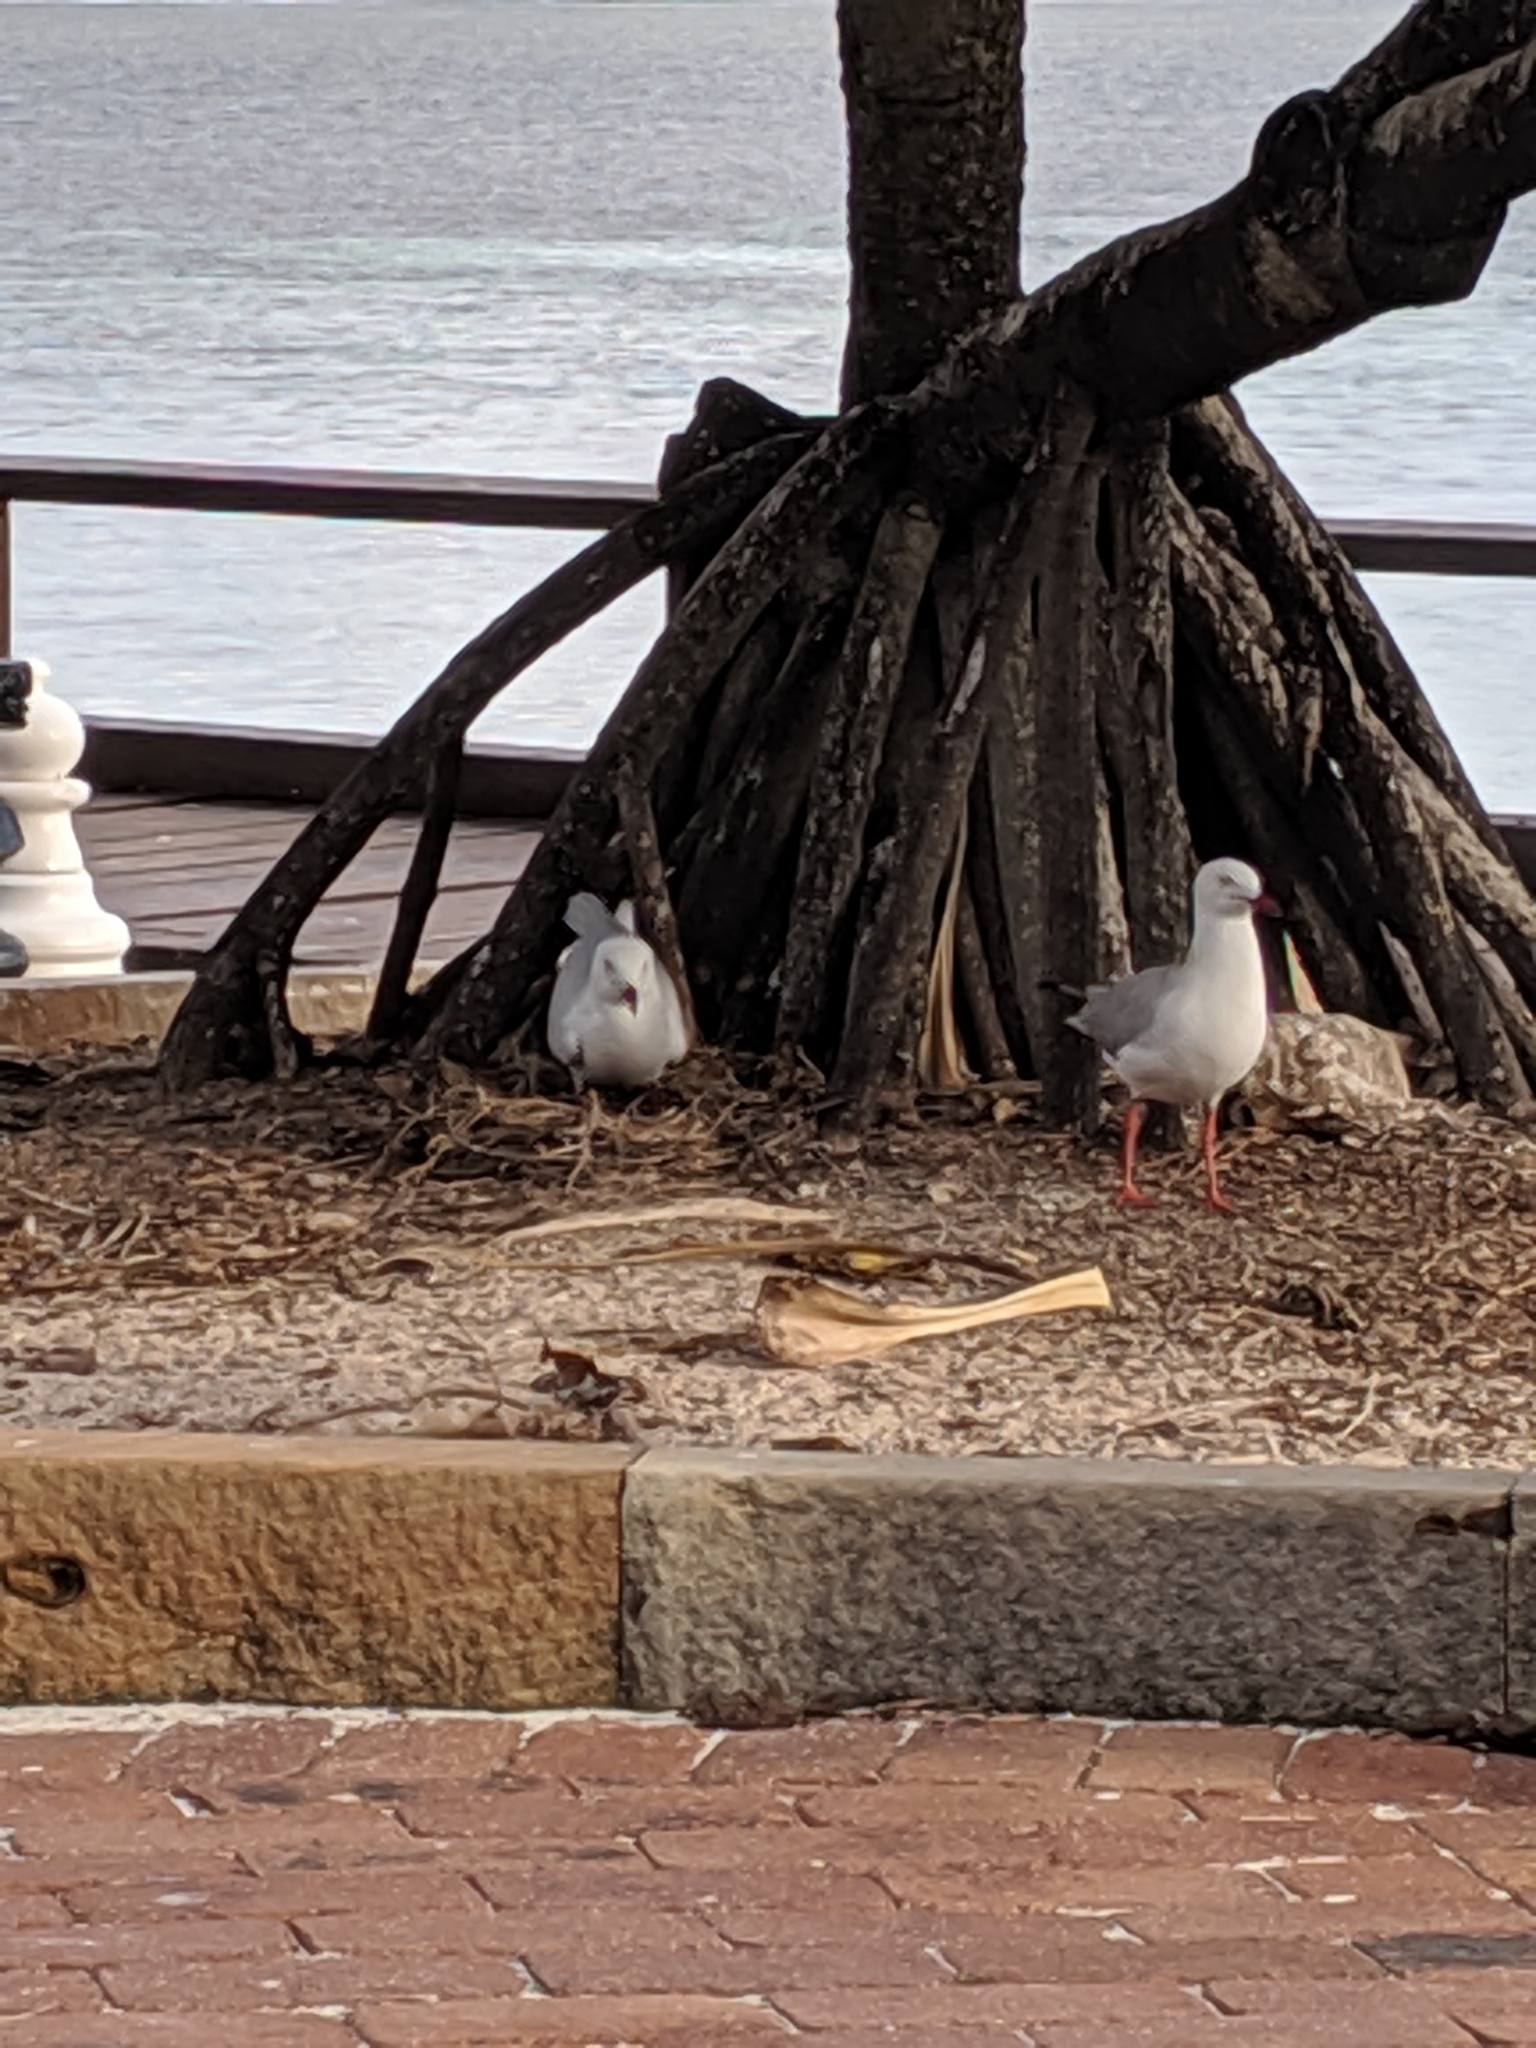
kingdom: Animalia
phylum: Chordata
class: Aves
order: Charadriiformes
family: Laridae
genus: Chroicocephalus
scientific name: Chroicocephalus novaehollandiae
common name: Silver gull
